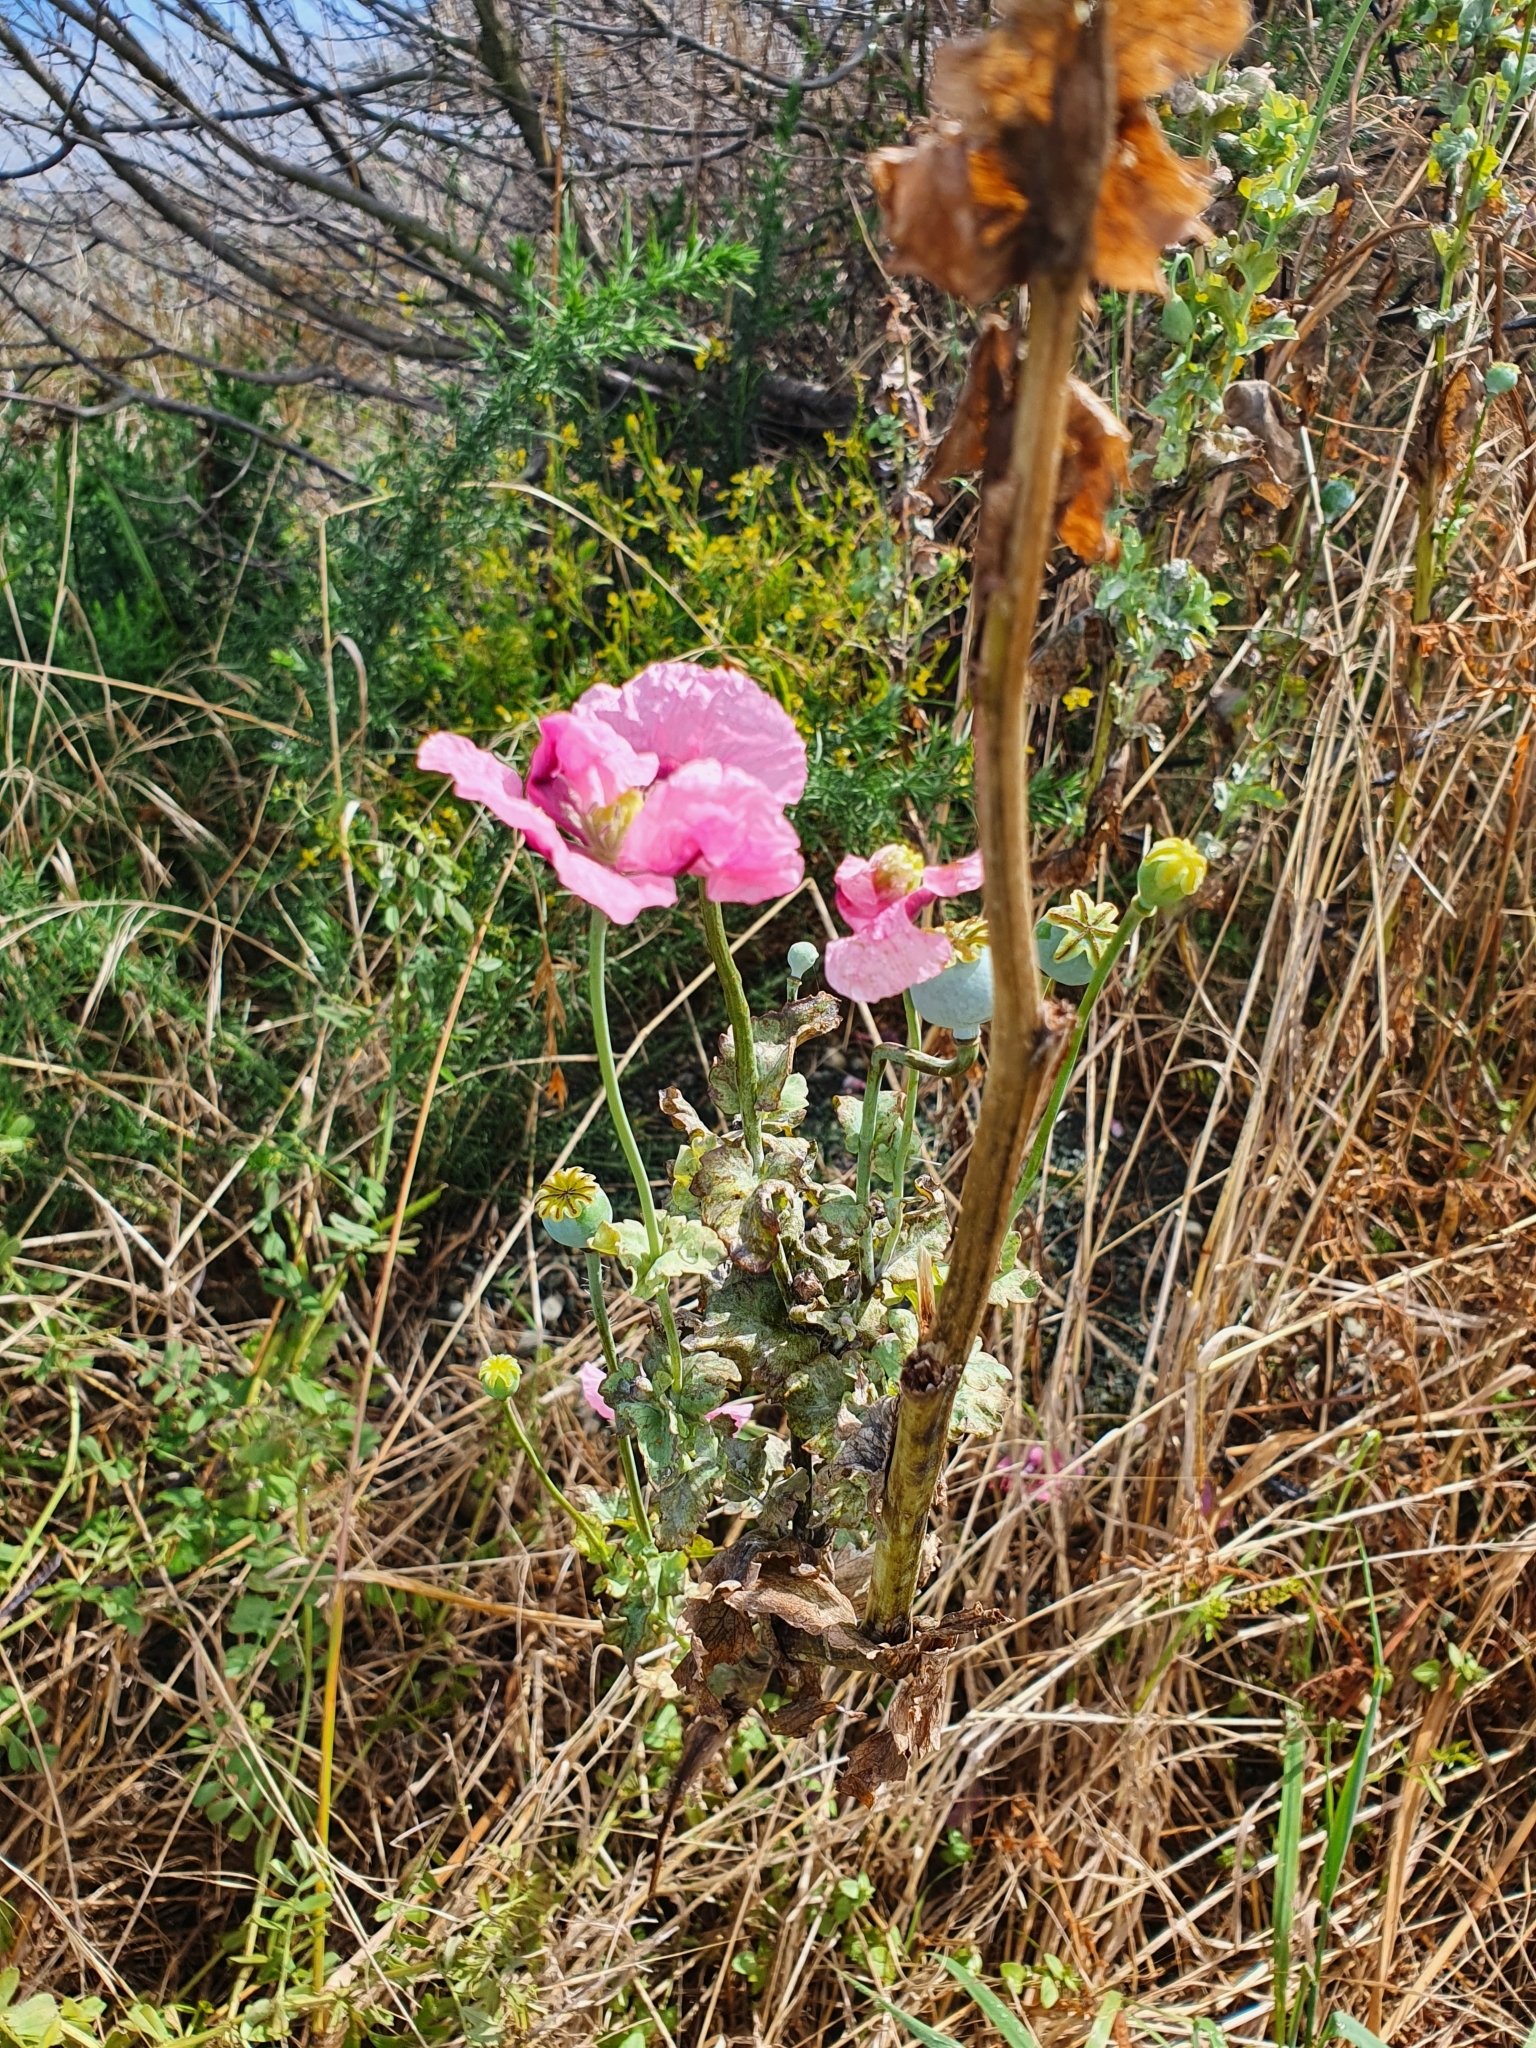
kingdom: Plantae
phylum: Tracheophyta
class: Magnoliopsida
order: Ranunculales
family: Papaveraceae
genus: Papaver
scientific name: Papaver somniferum
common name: Opium poppy
